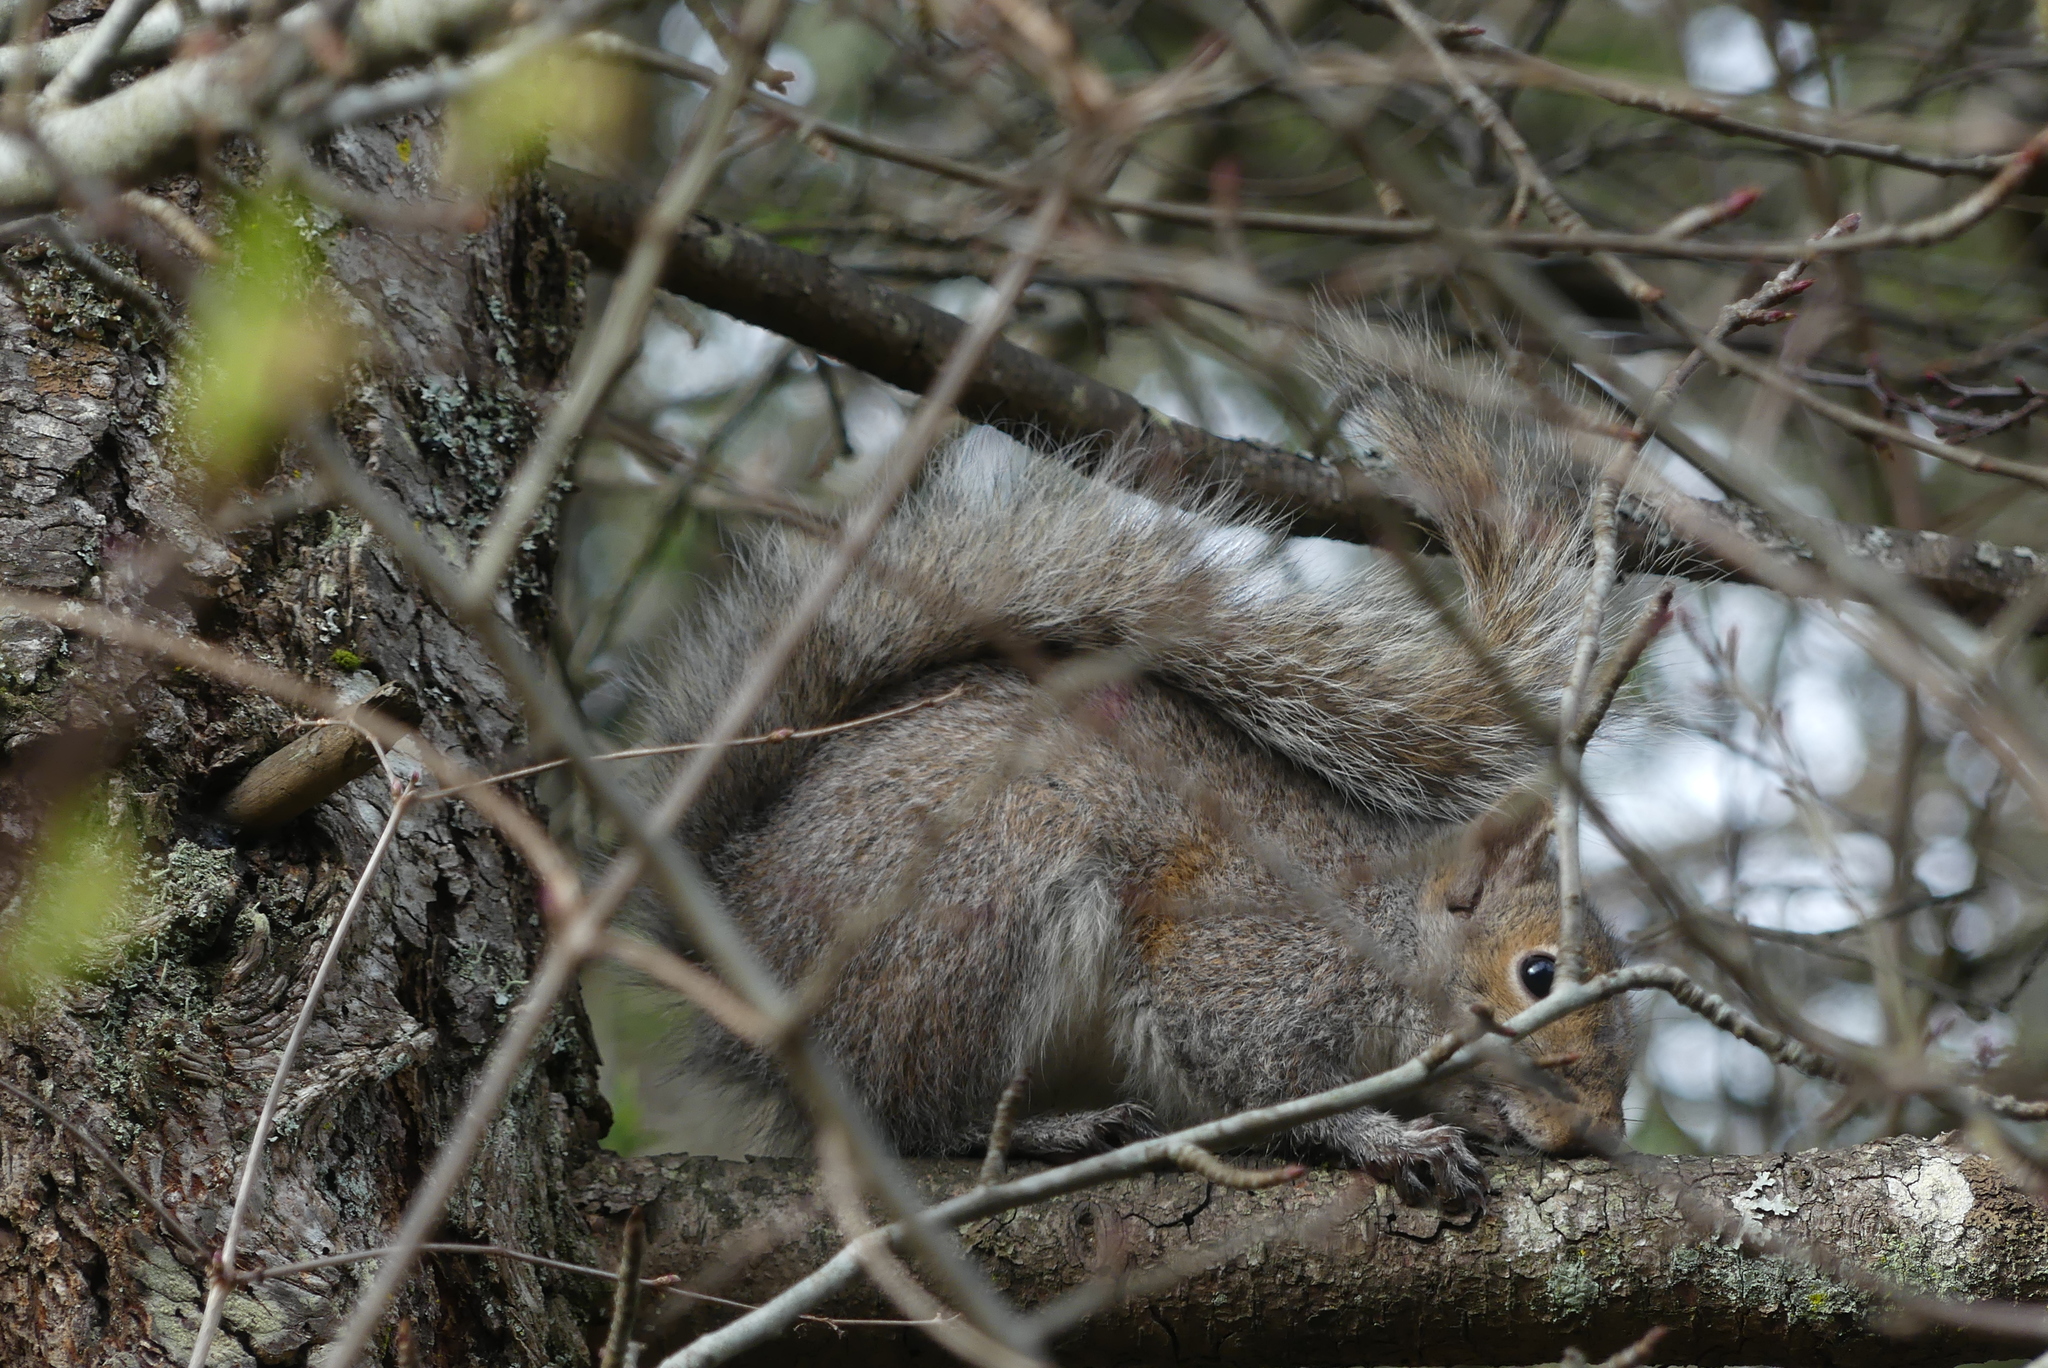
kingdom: Animalia
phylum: Chordata
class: Mammalia
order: Rodentia
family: Sciuridae
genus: Sciurus
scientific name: Sciurus carolinensis
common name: Eastern gray squirrel
